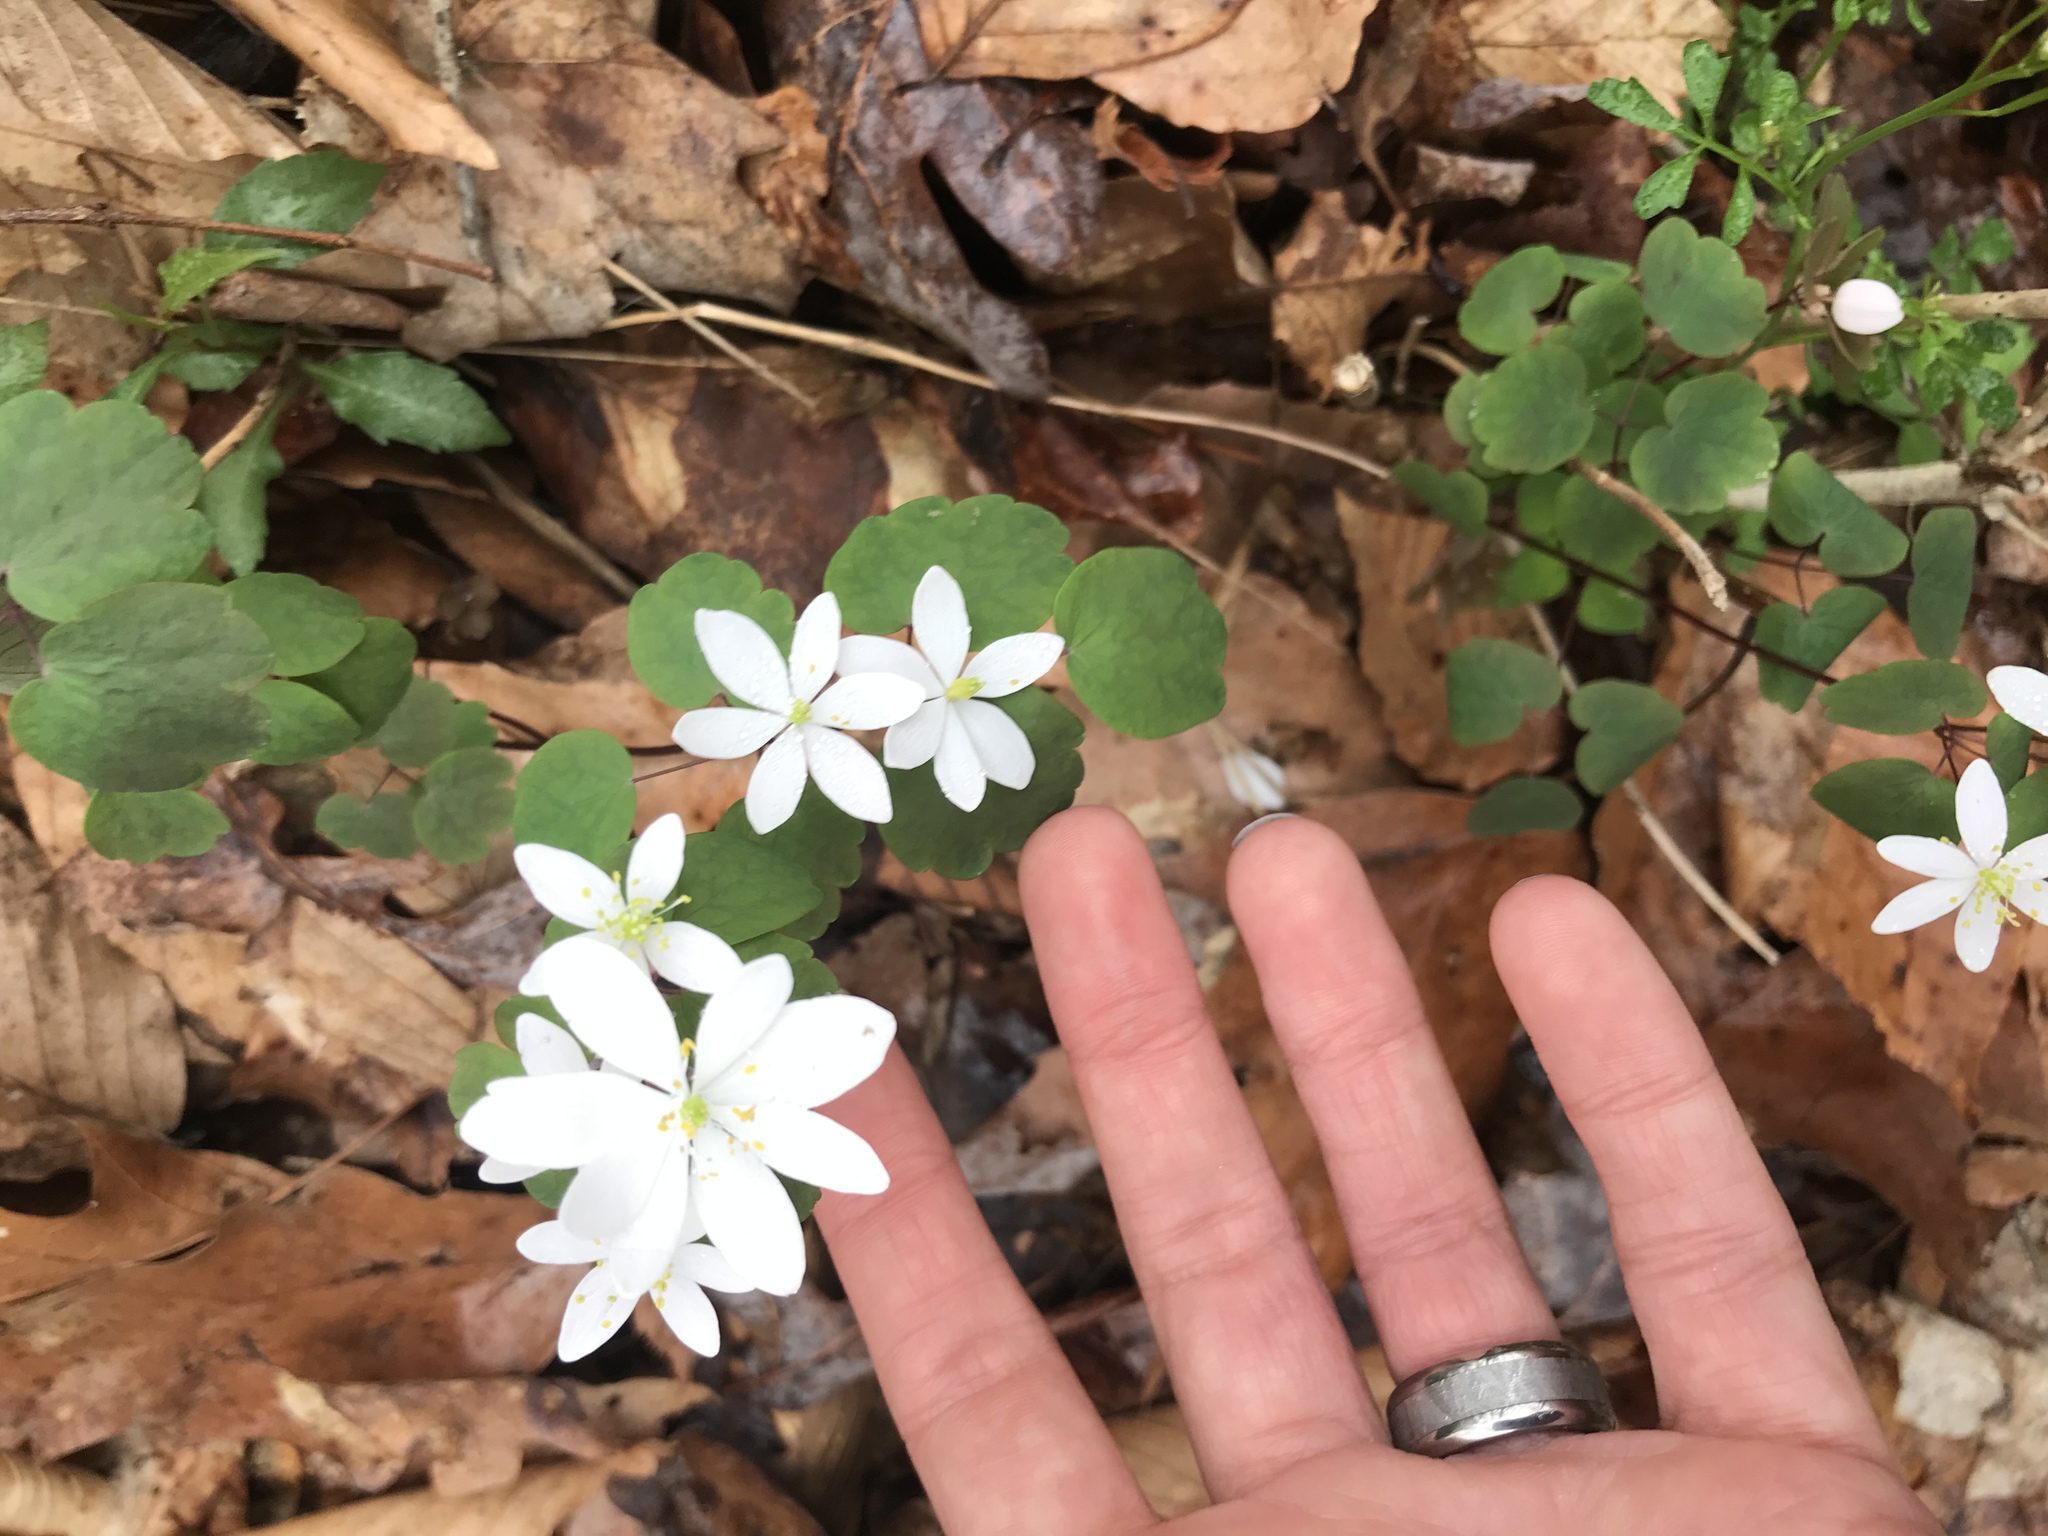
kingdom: Plantae
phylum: Tracheophyta
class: Magnoliopsida
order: Ranunculales
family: Ranunculaceae
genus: Thalictrum
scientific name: Thalictrum thalictroides
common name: Rue-anemone
